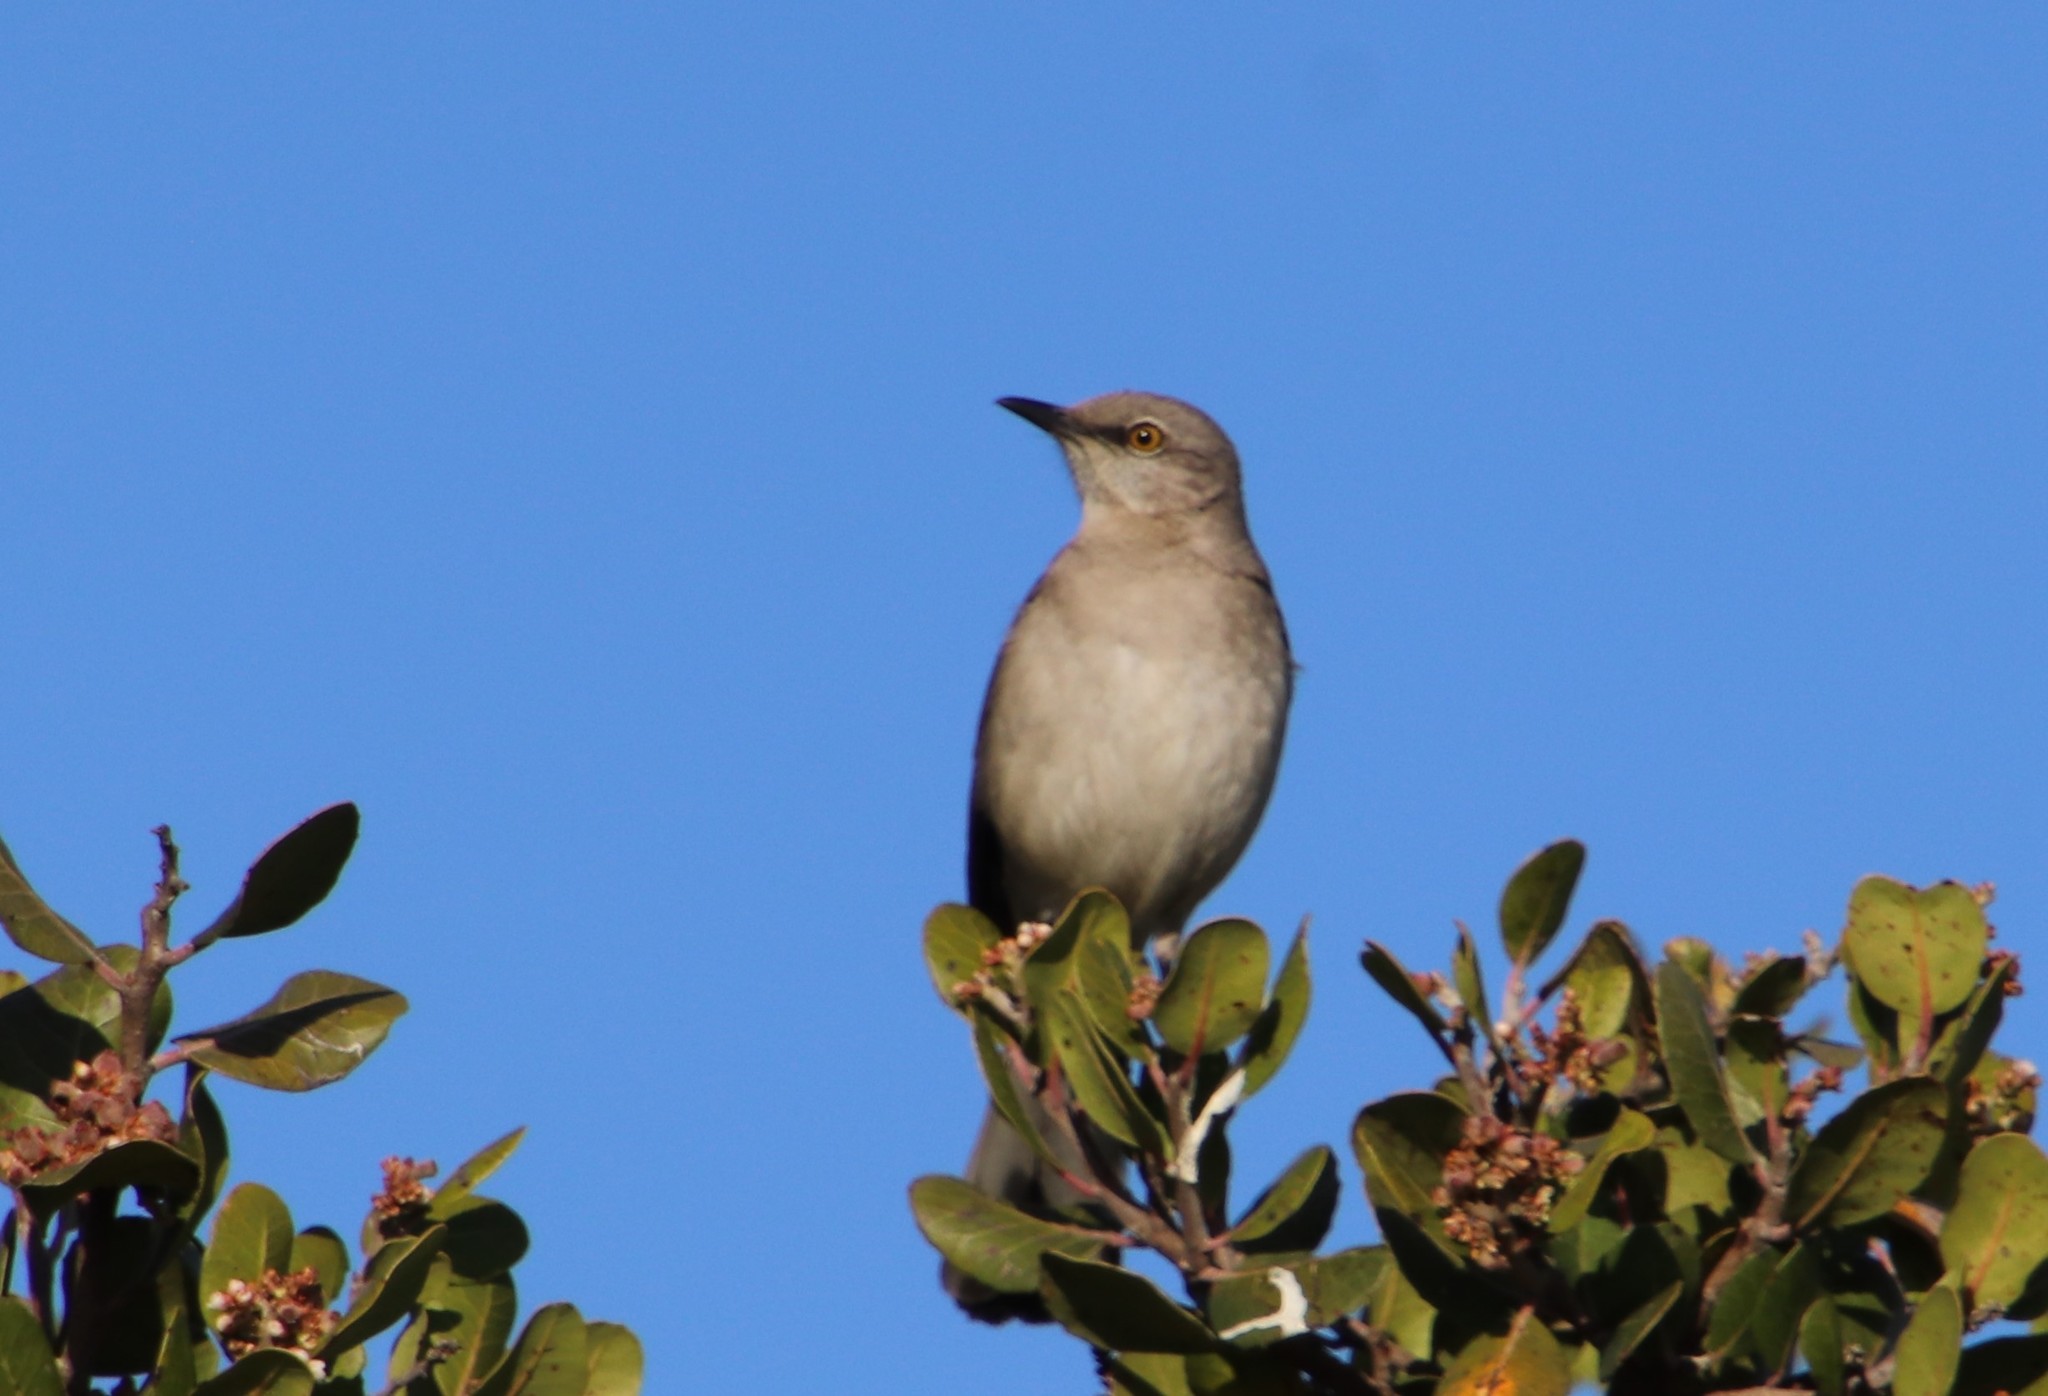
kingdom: Animalia
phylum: Chordata
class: Aves
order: Passeriformes
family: Mimidae
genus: Mimus
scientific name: Mimus polyglottos
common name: Northern mockingbird
